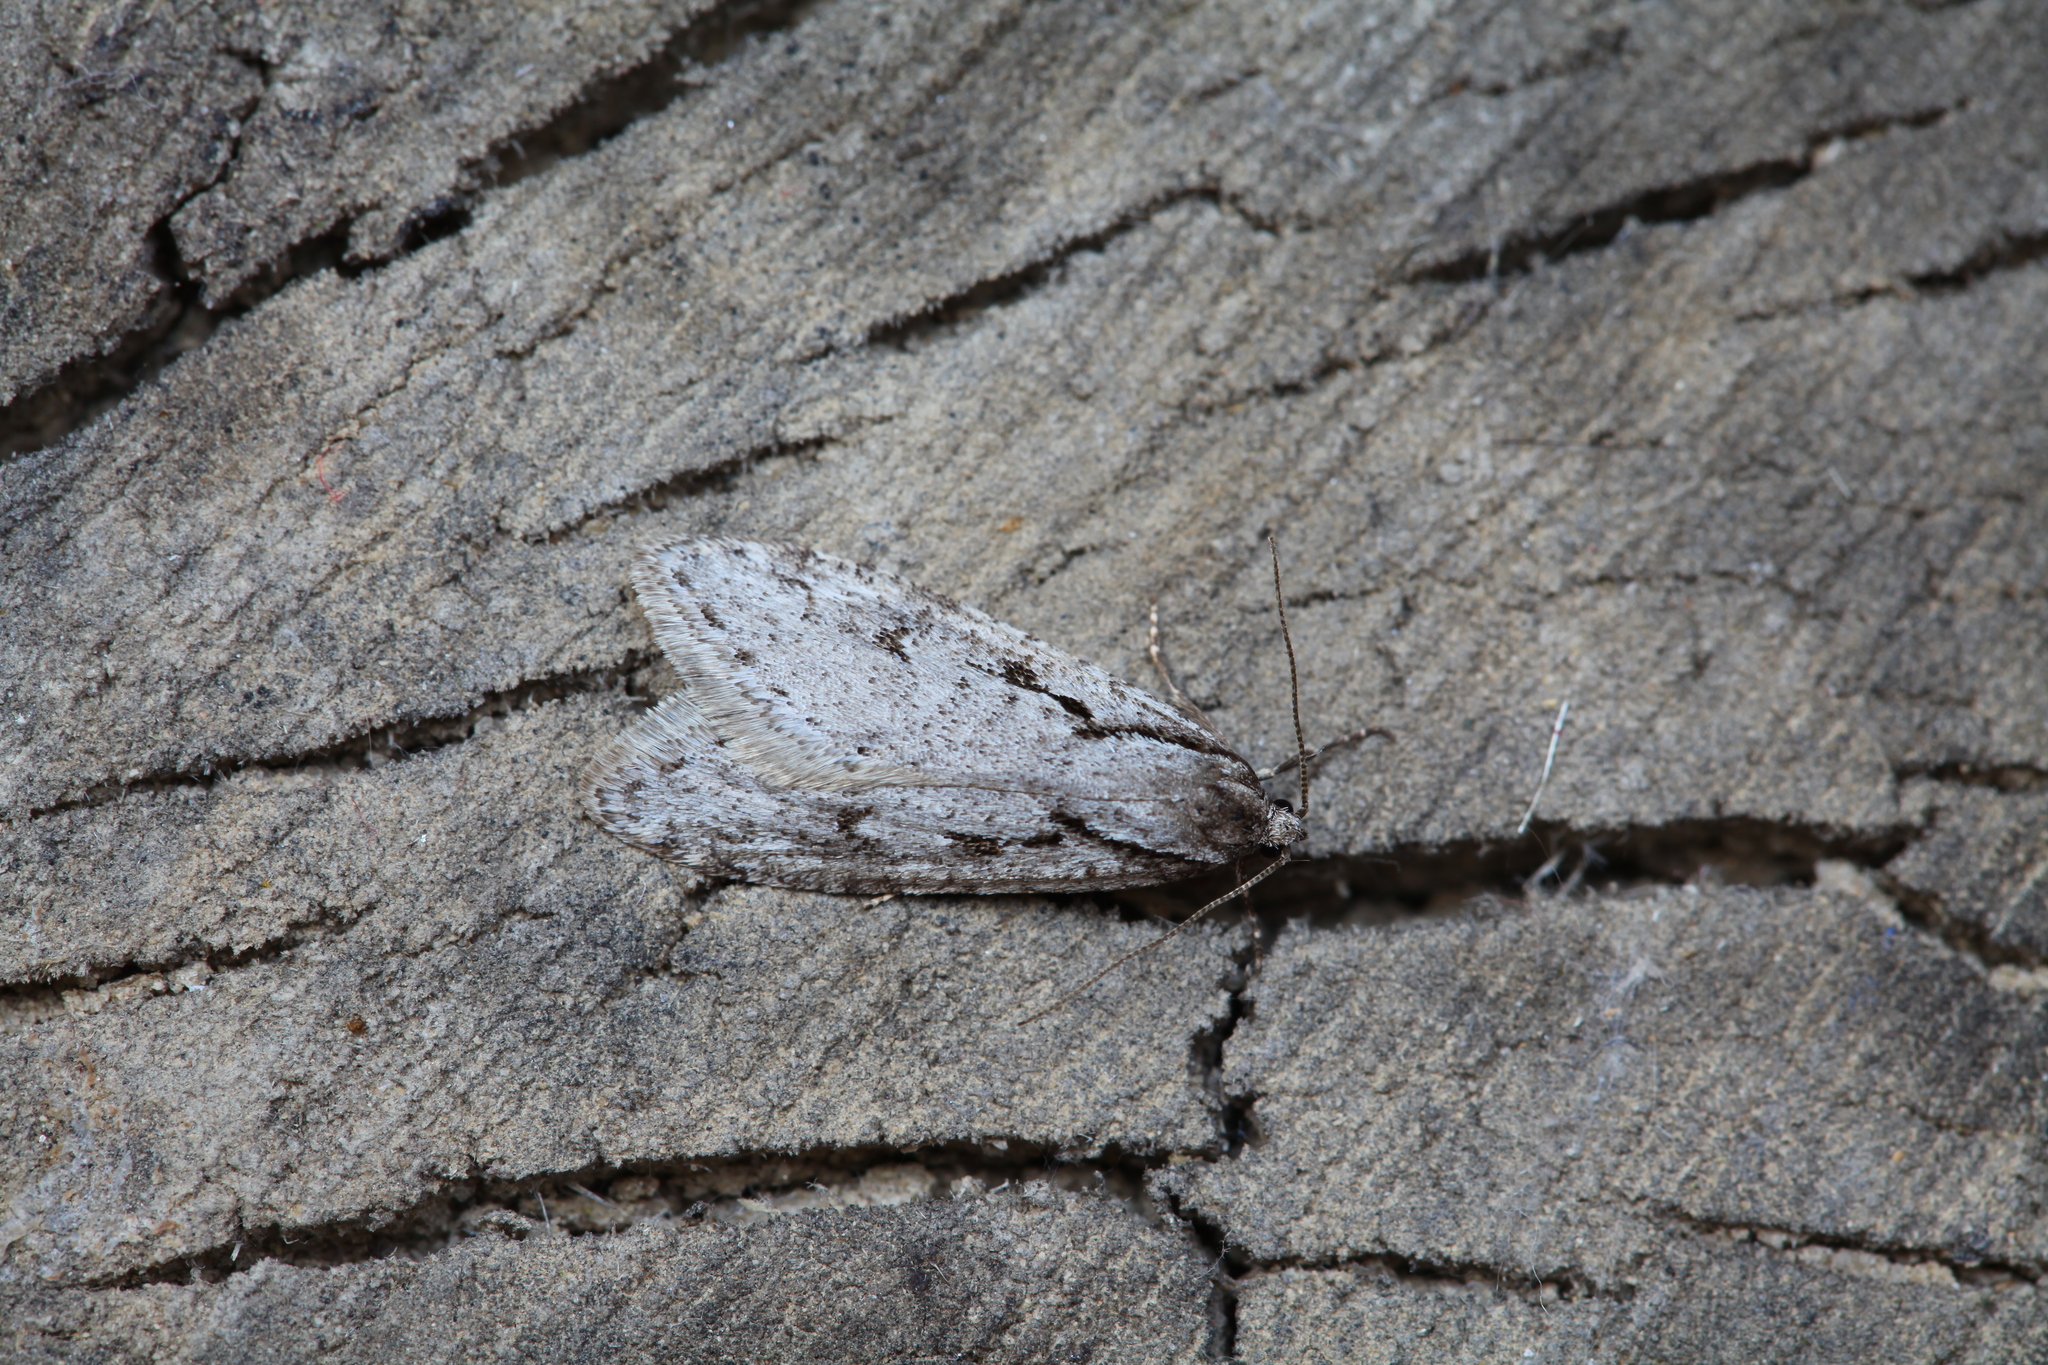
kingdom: Animalia
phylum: Arthropoda
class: Insecta
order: Lepidoptera
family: Depressariidae
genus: Semioscopis
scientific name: Semioscopis avellanella
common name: Early flat-body
